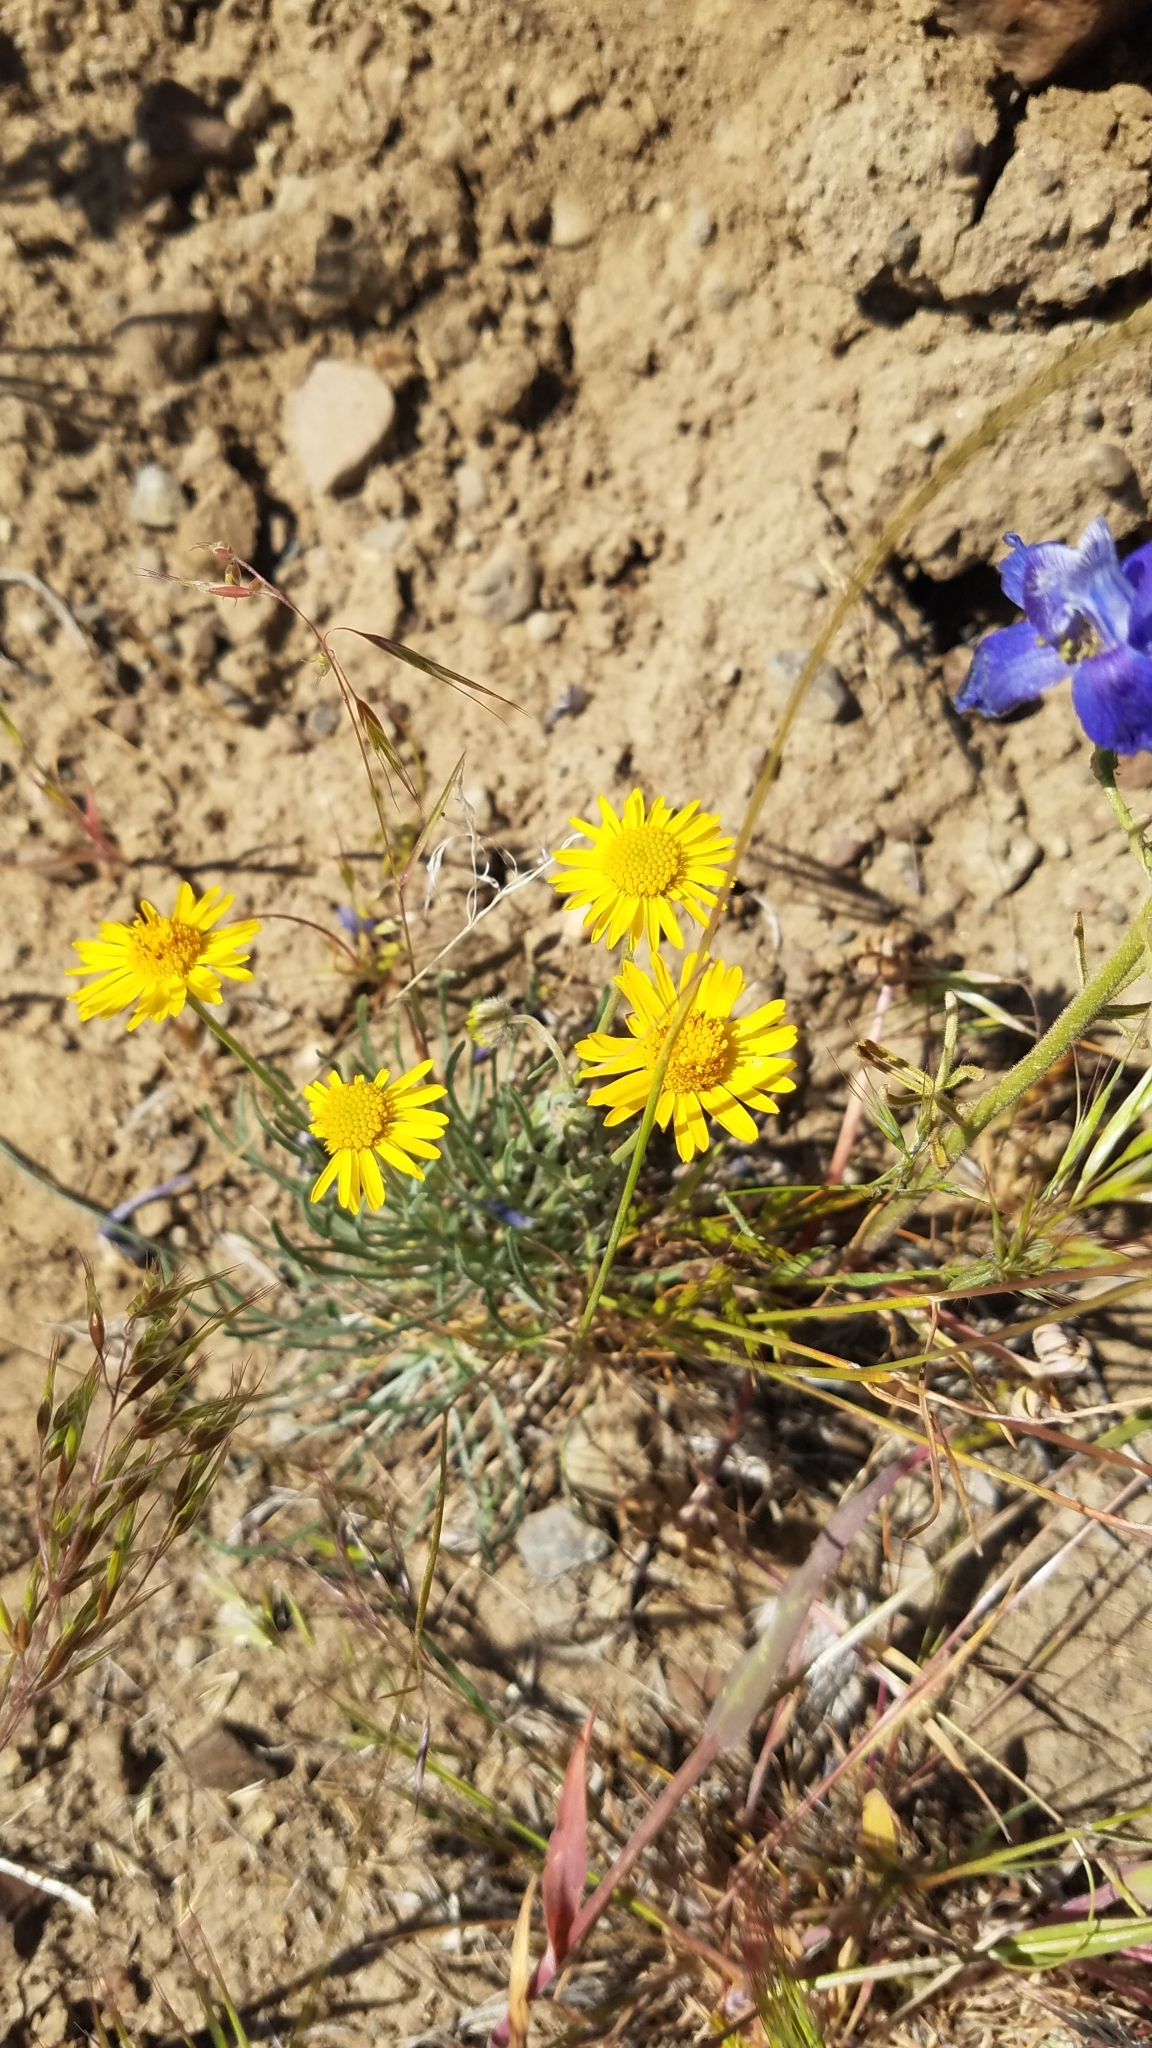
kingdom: Plantae
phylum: Tracheophyta
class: Magnoliopsida
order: Asterales
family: Asteraceae
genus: Erigeron
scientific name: Erigeron linearis
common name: Desert yellow fleabane
